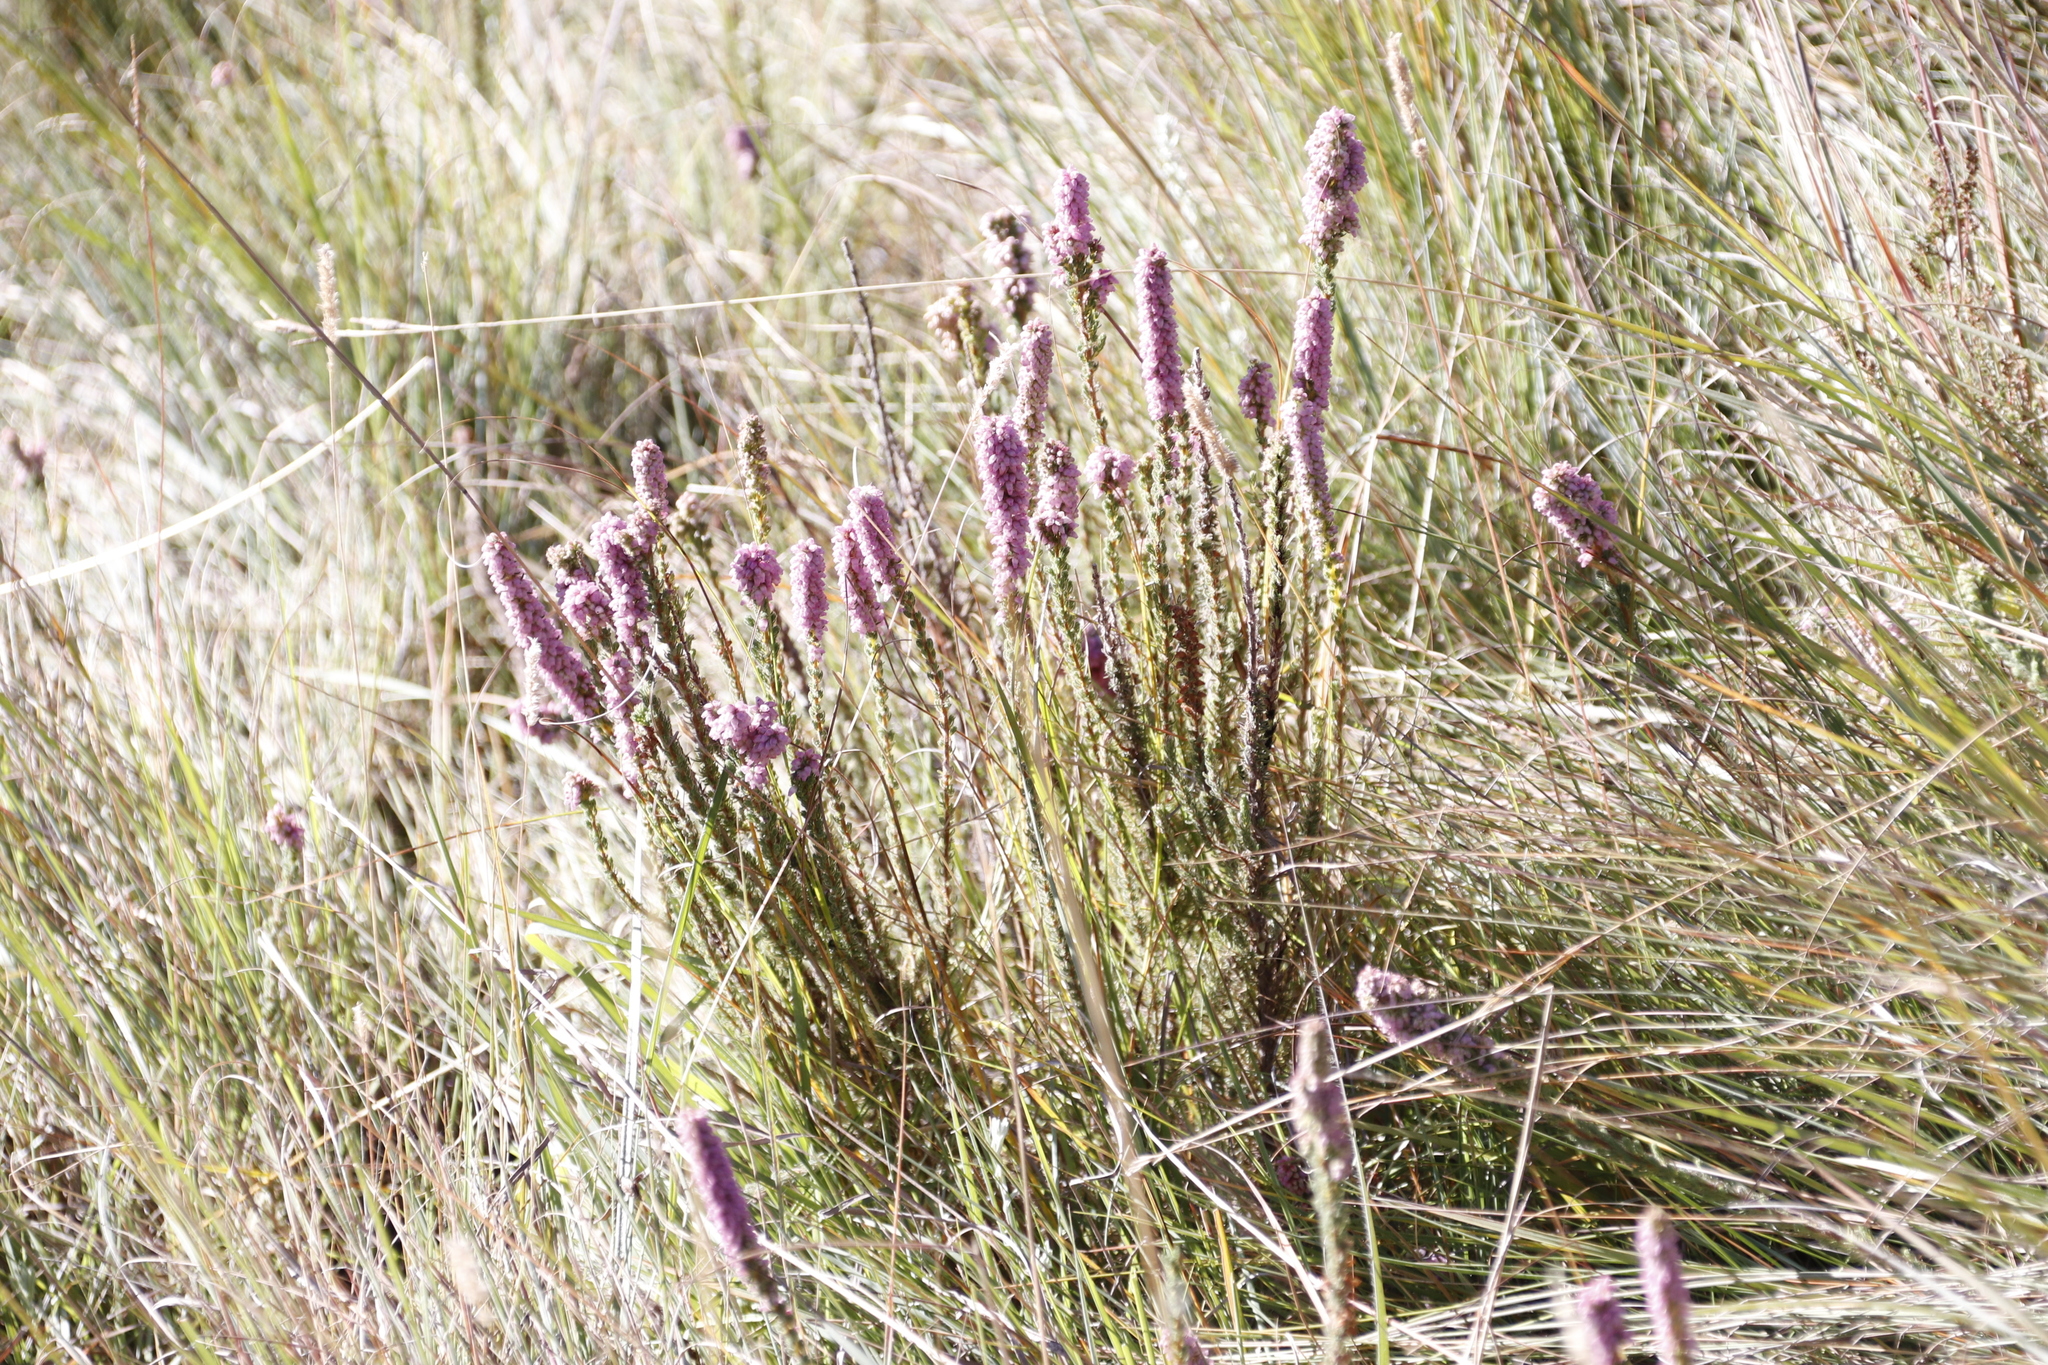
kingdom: Plantae
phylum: Tracheophyta
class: Magnoliopsida
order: Ericales
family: Ericaceae
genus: Erica
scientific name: Erica alopecurus
